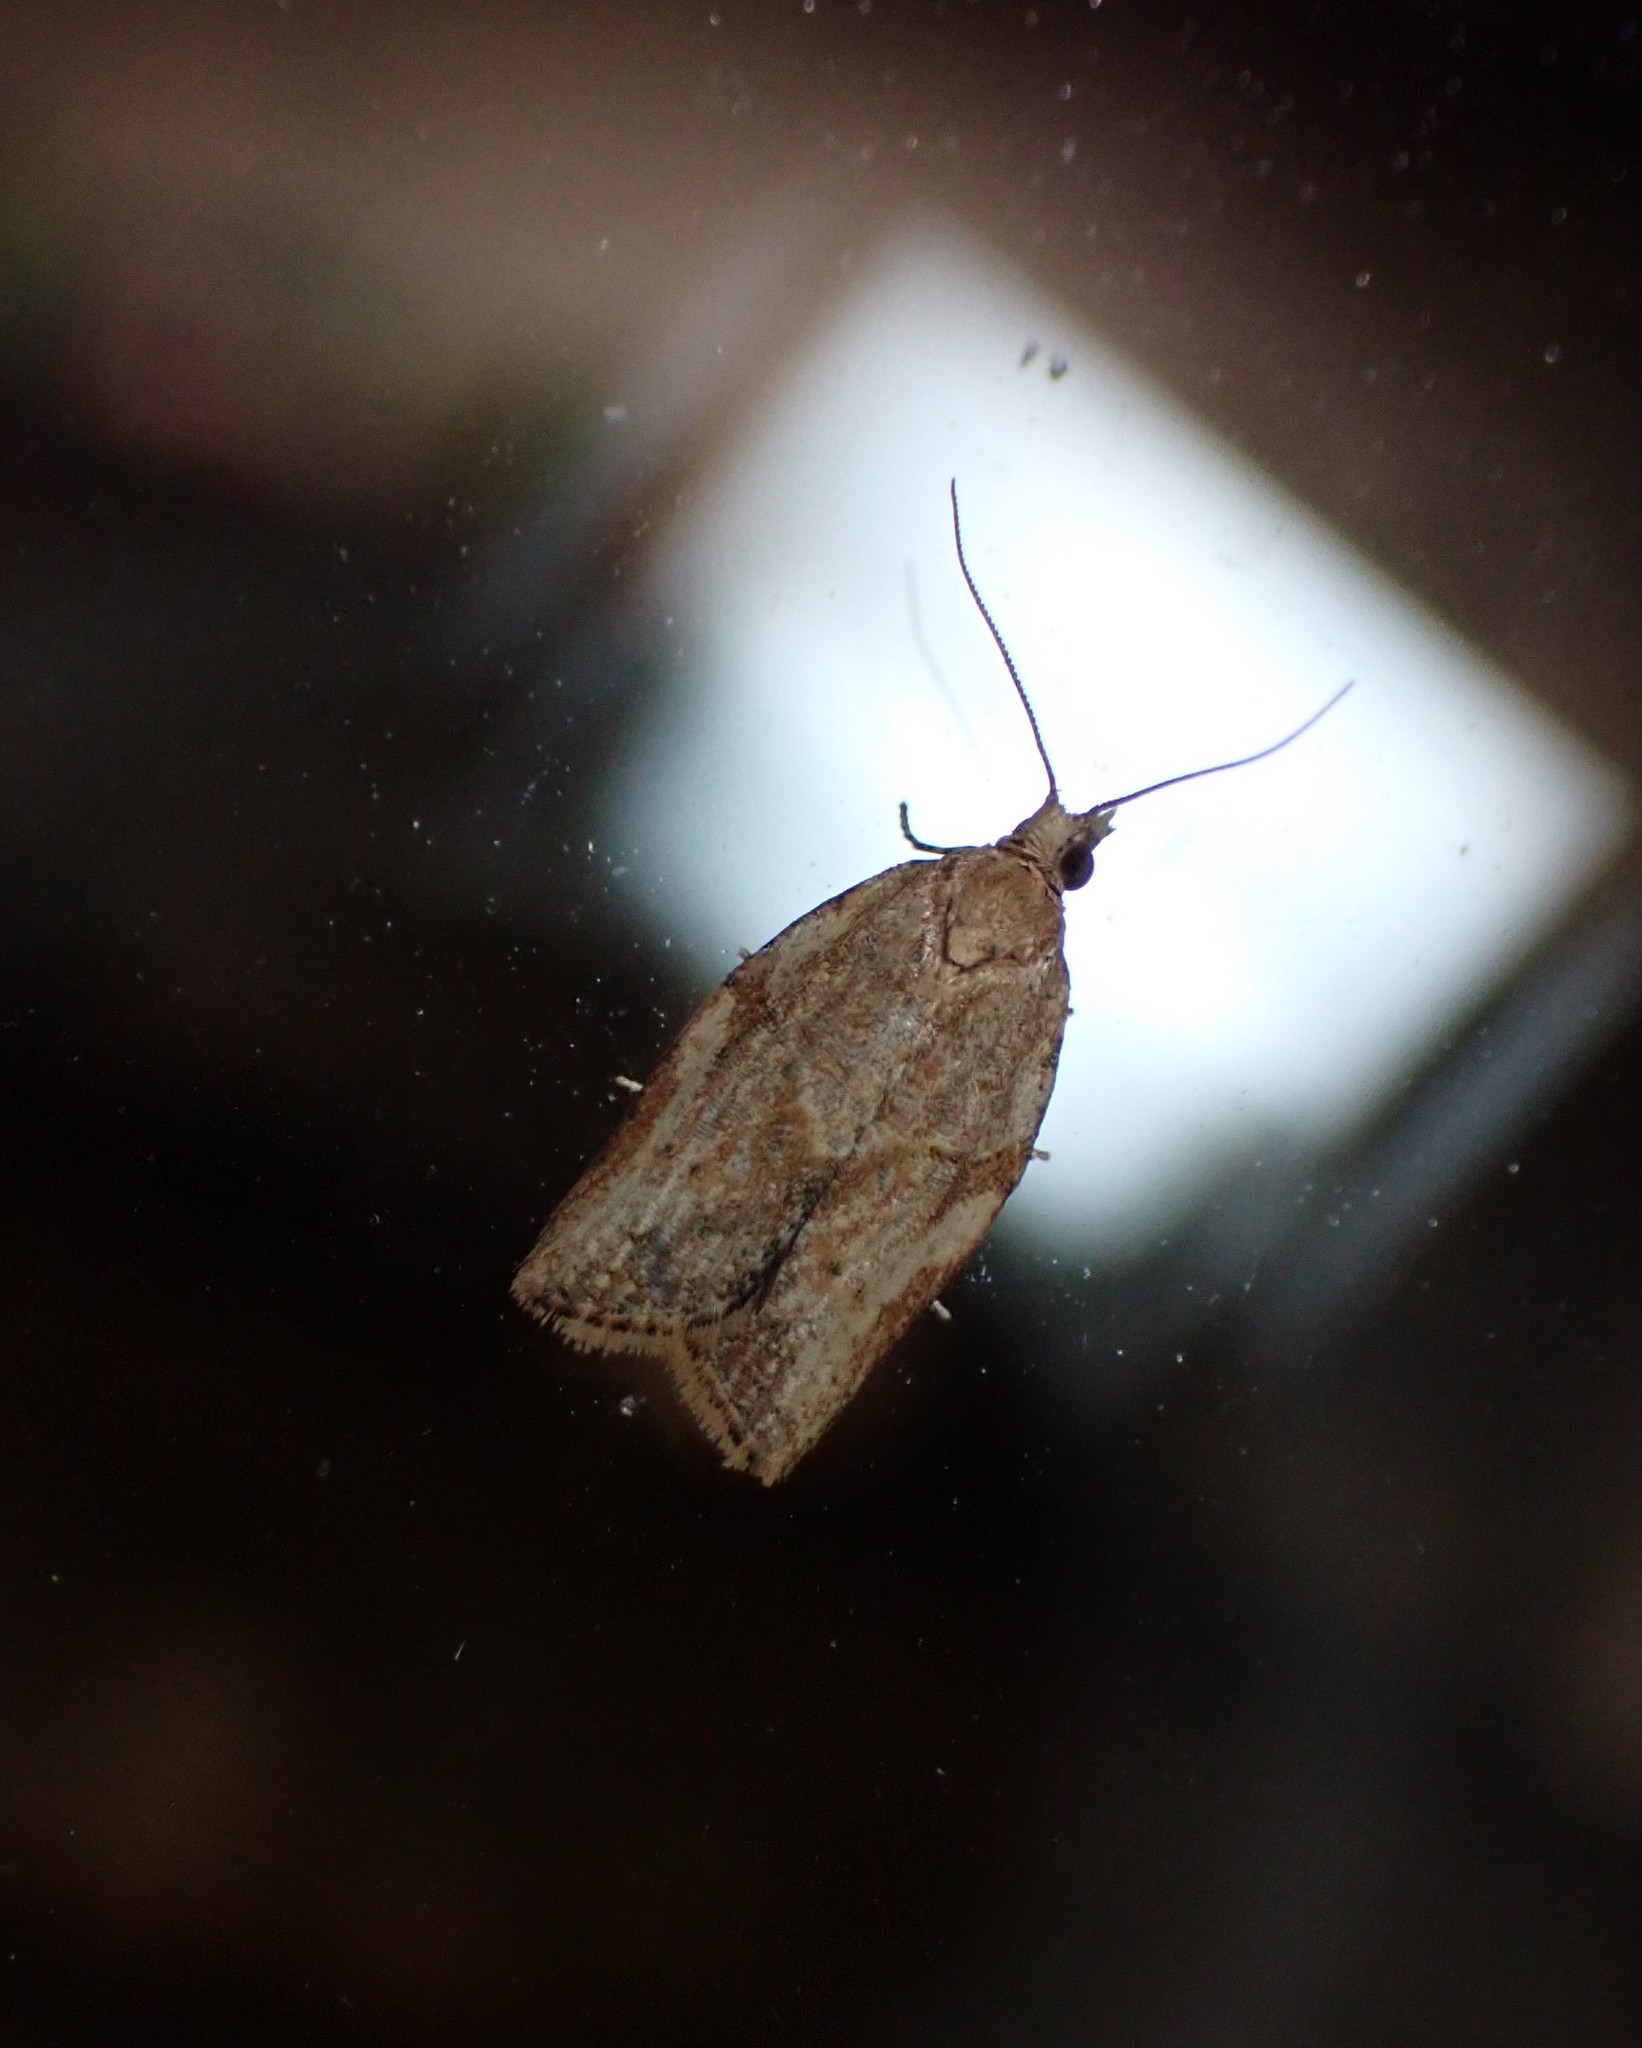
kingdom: Animalia
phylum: Arthropoda
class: Insecta
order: Lepidoptera
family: Tortricidae
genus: Epiphyas
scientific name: Epiphyas postvittana
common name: Light brown apple moth
